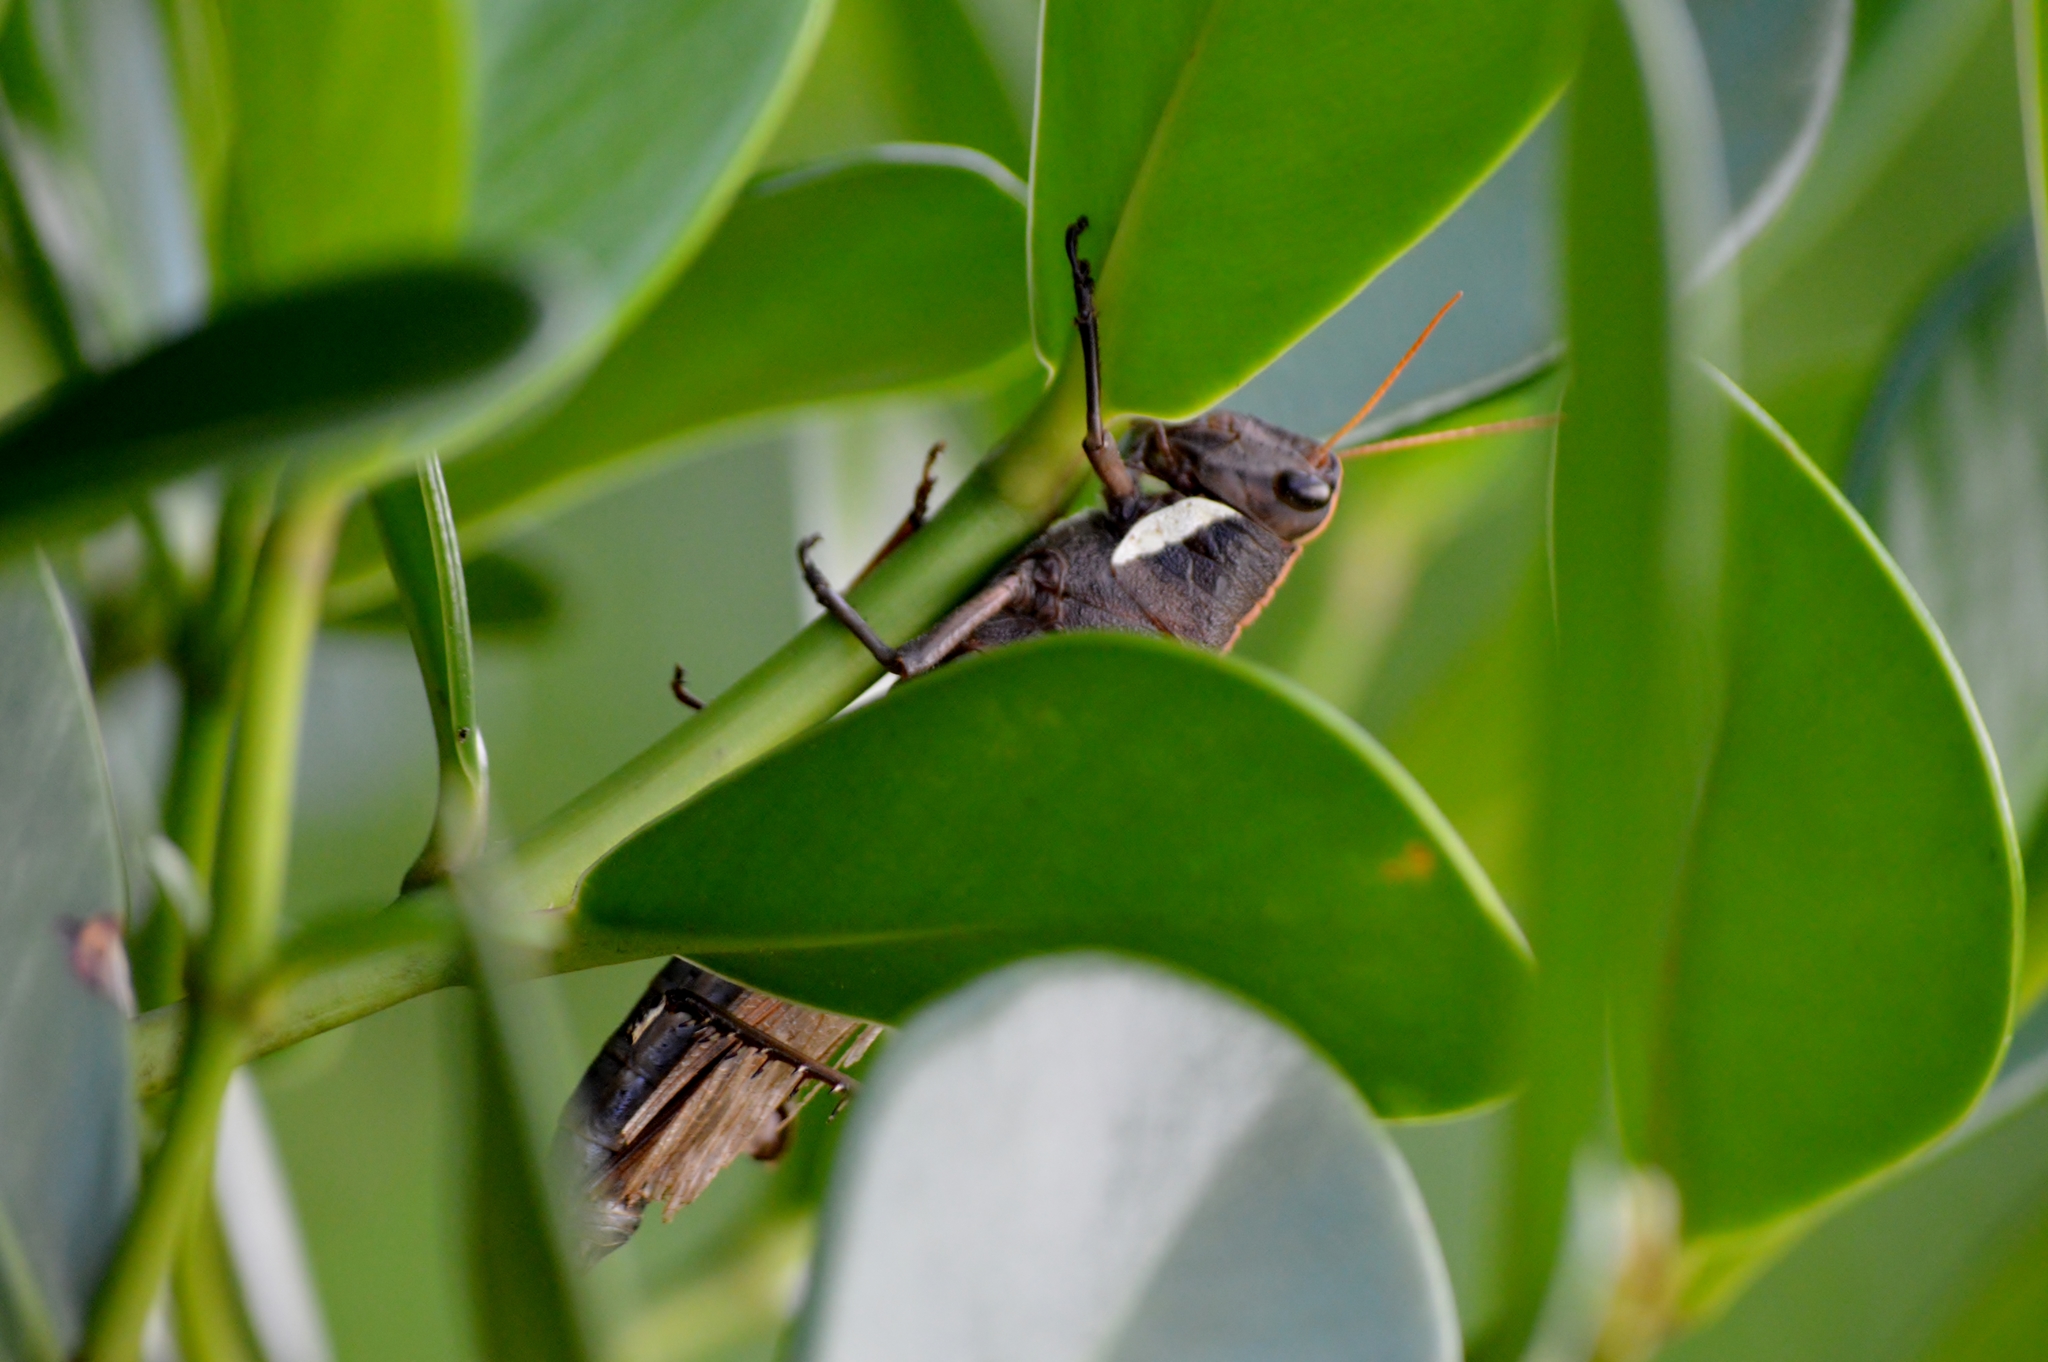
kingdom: Animalia
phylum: Arthropoda
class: Insecta
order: Orthoptera
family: Acrididae
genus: Schistocerca
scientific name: Schistocerca flavofasciata
